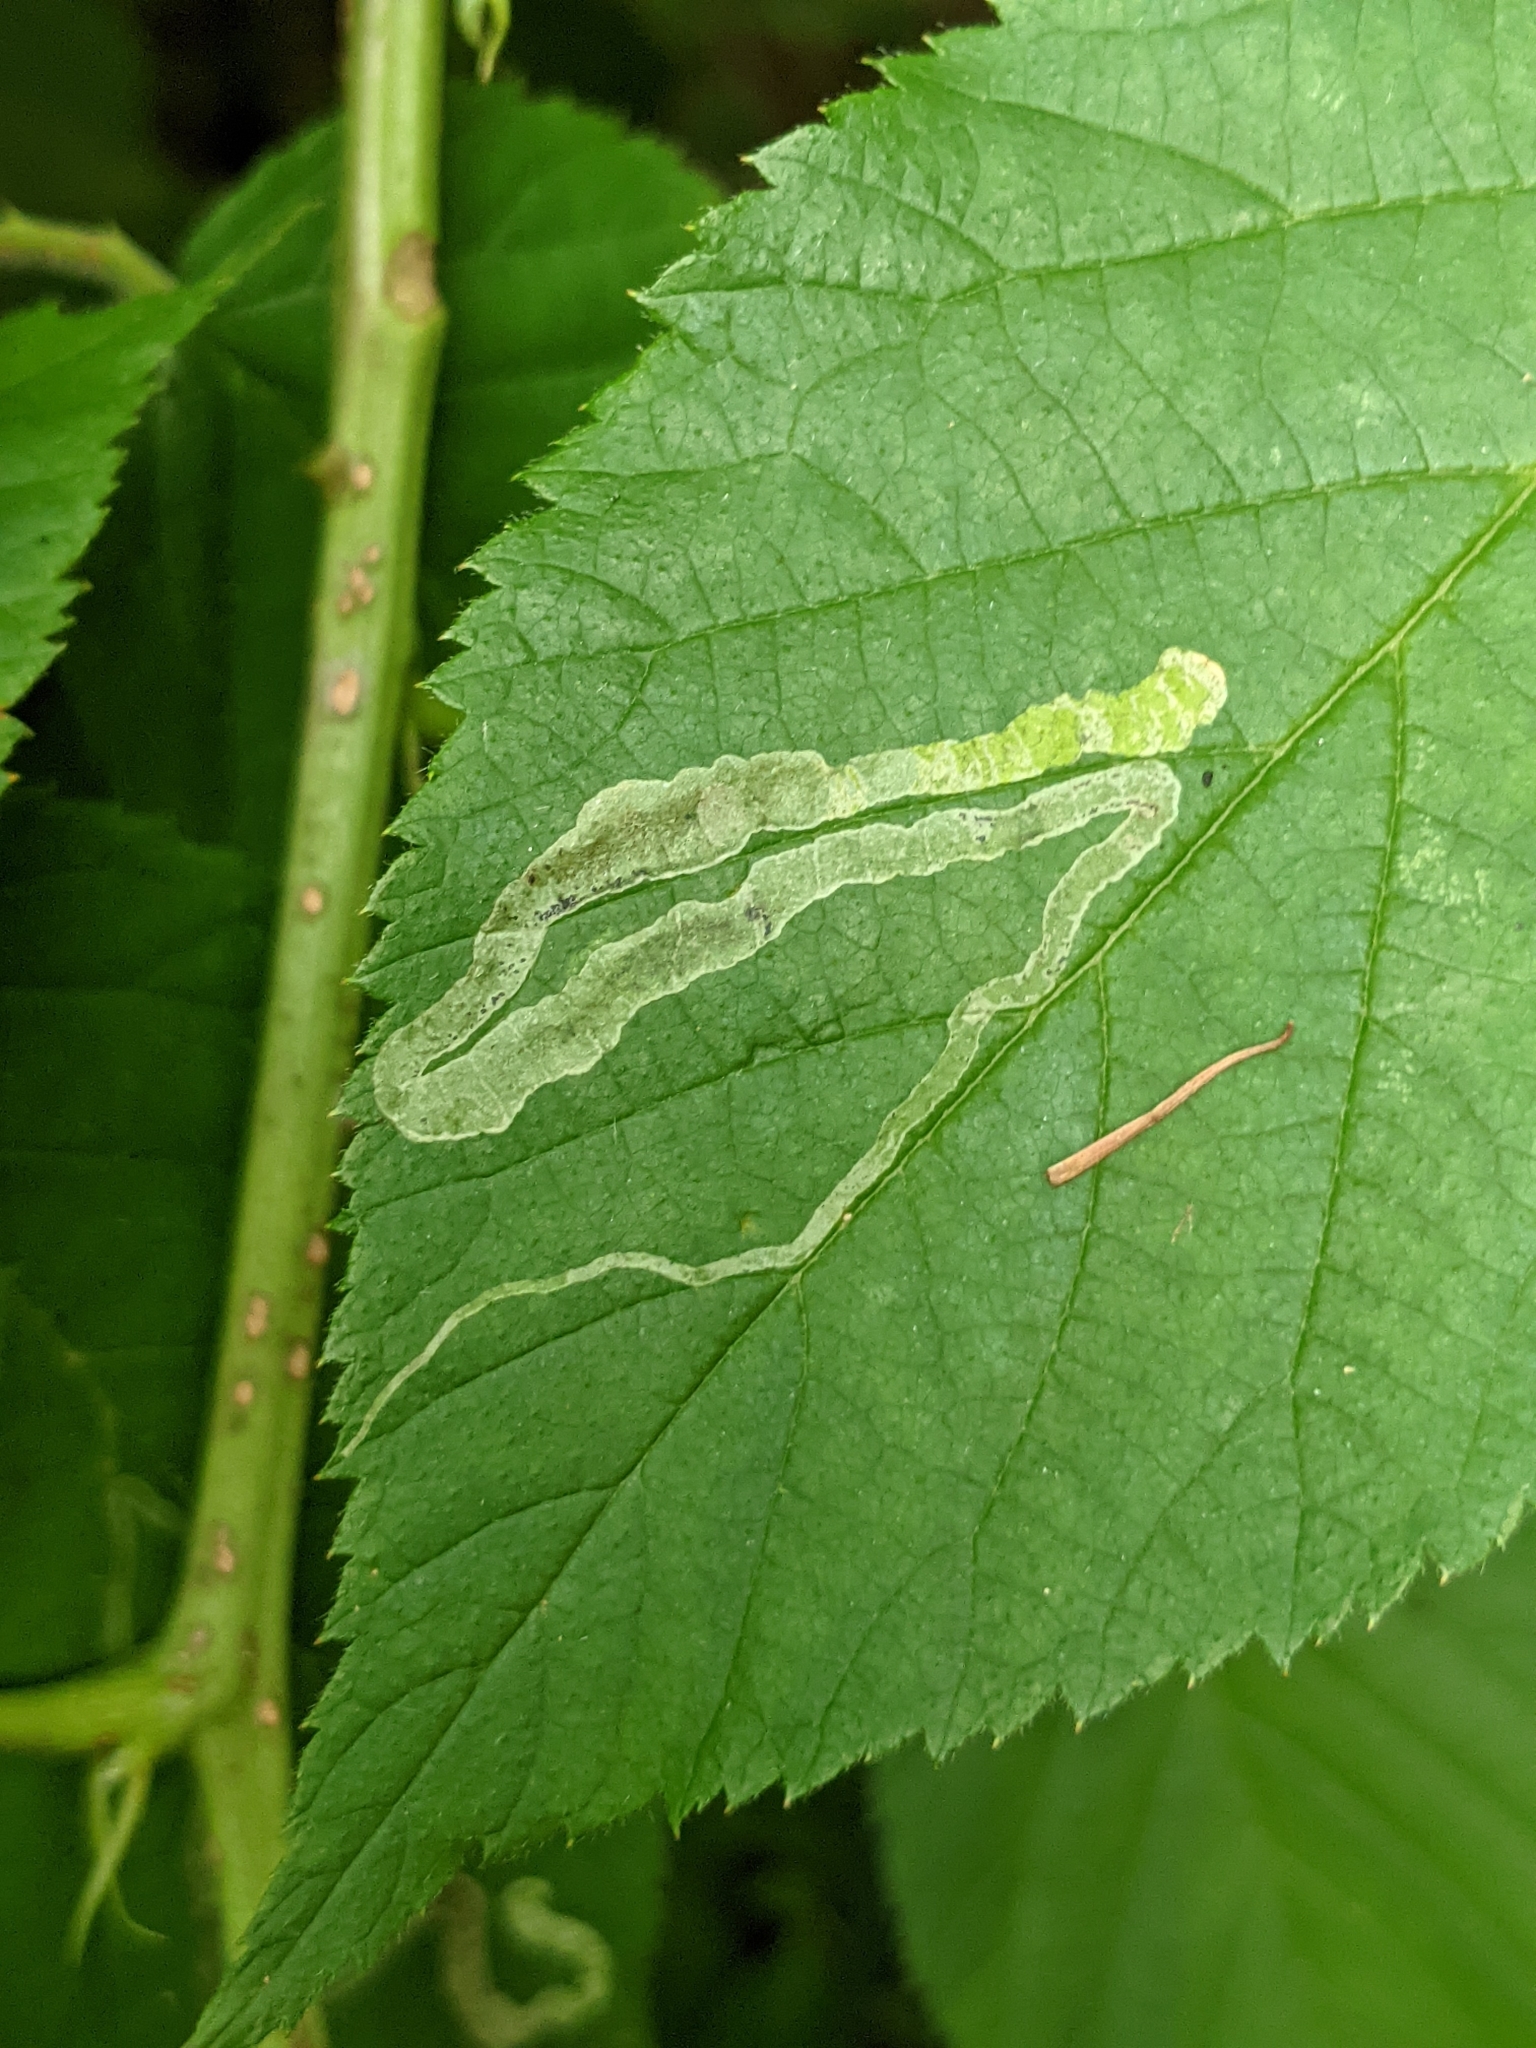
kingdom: Animalia
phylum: Arthropoda
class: Insecta
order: Diptera
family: Agromyzidae
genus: Agromyza
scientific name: Agromyza vockerothi
